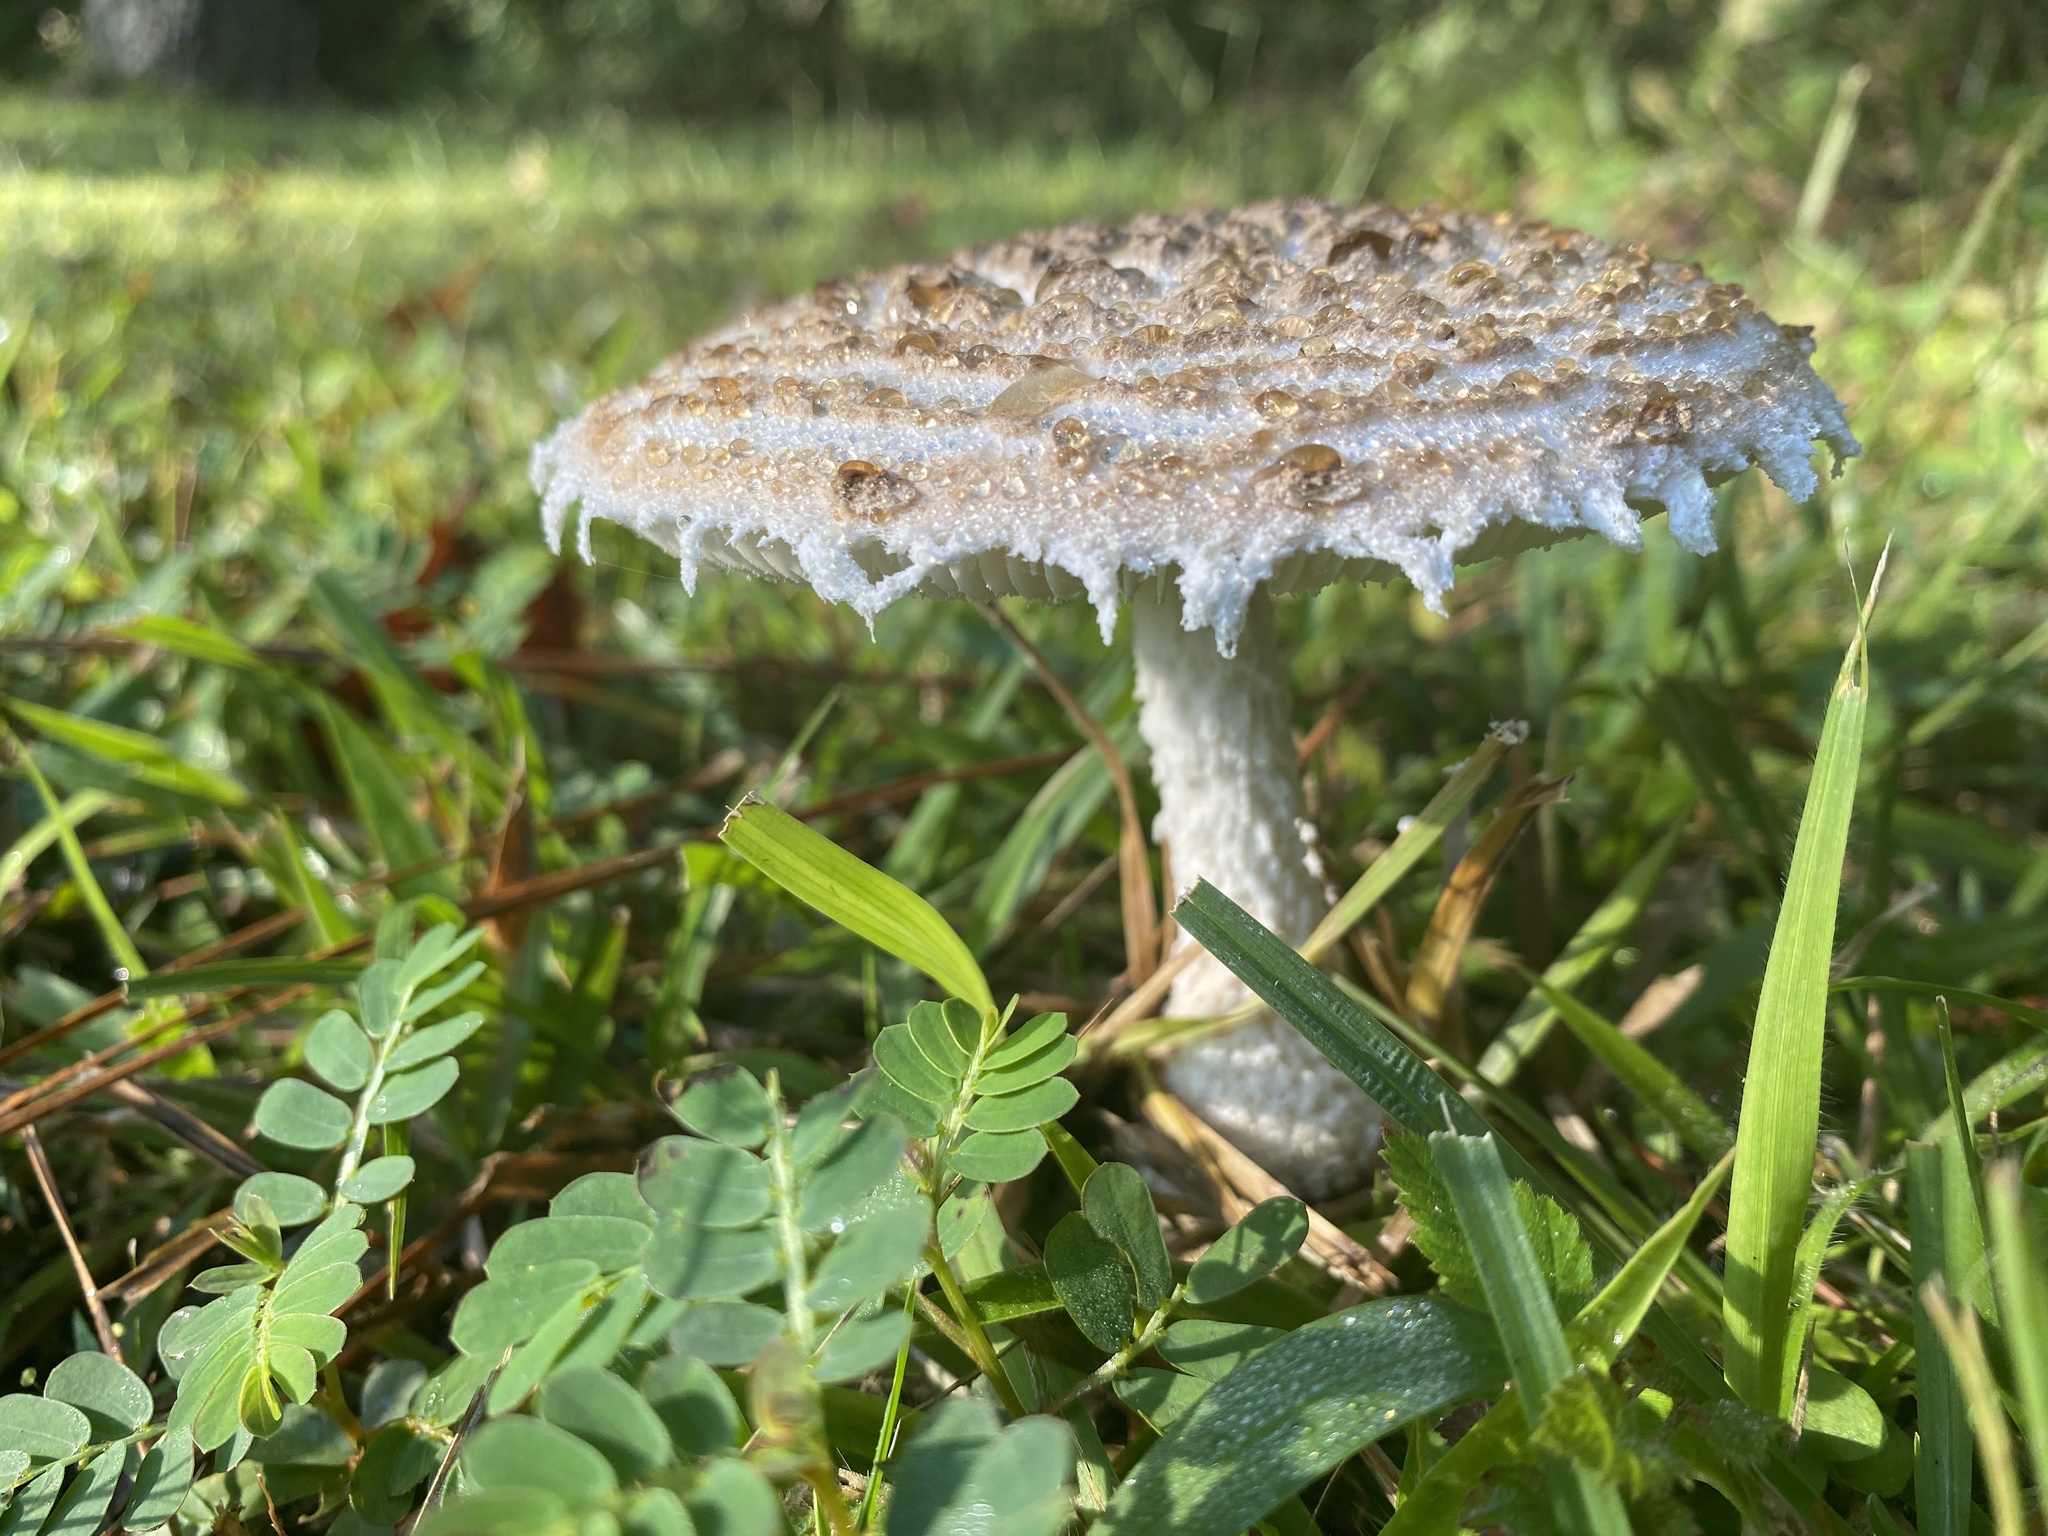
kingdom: Fungi
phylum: Basidiomycota
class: Agaricomycetes
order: Agaricales
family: Amanitaceae
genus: Aspidella
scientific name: Aspidella hesleri
